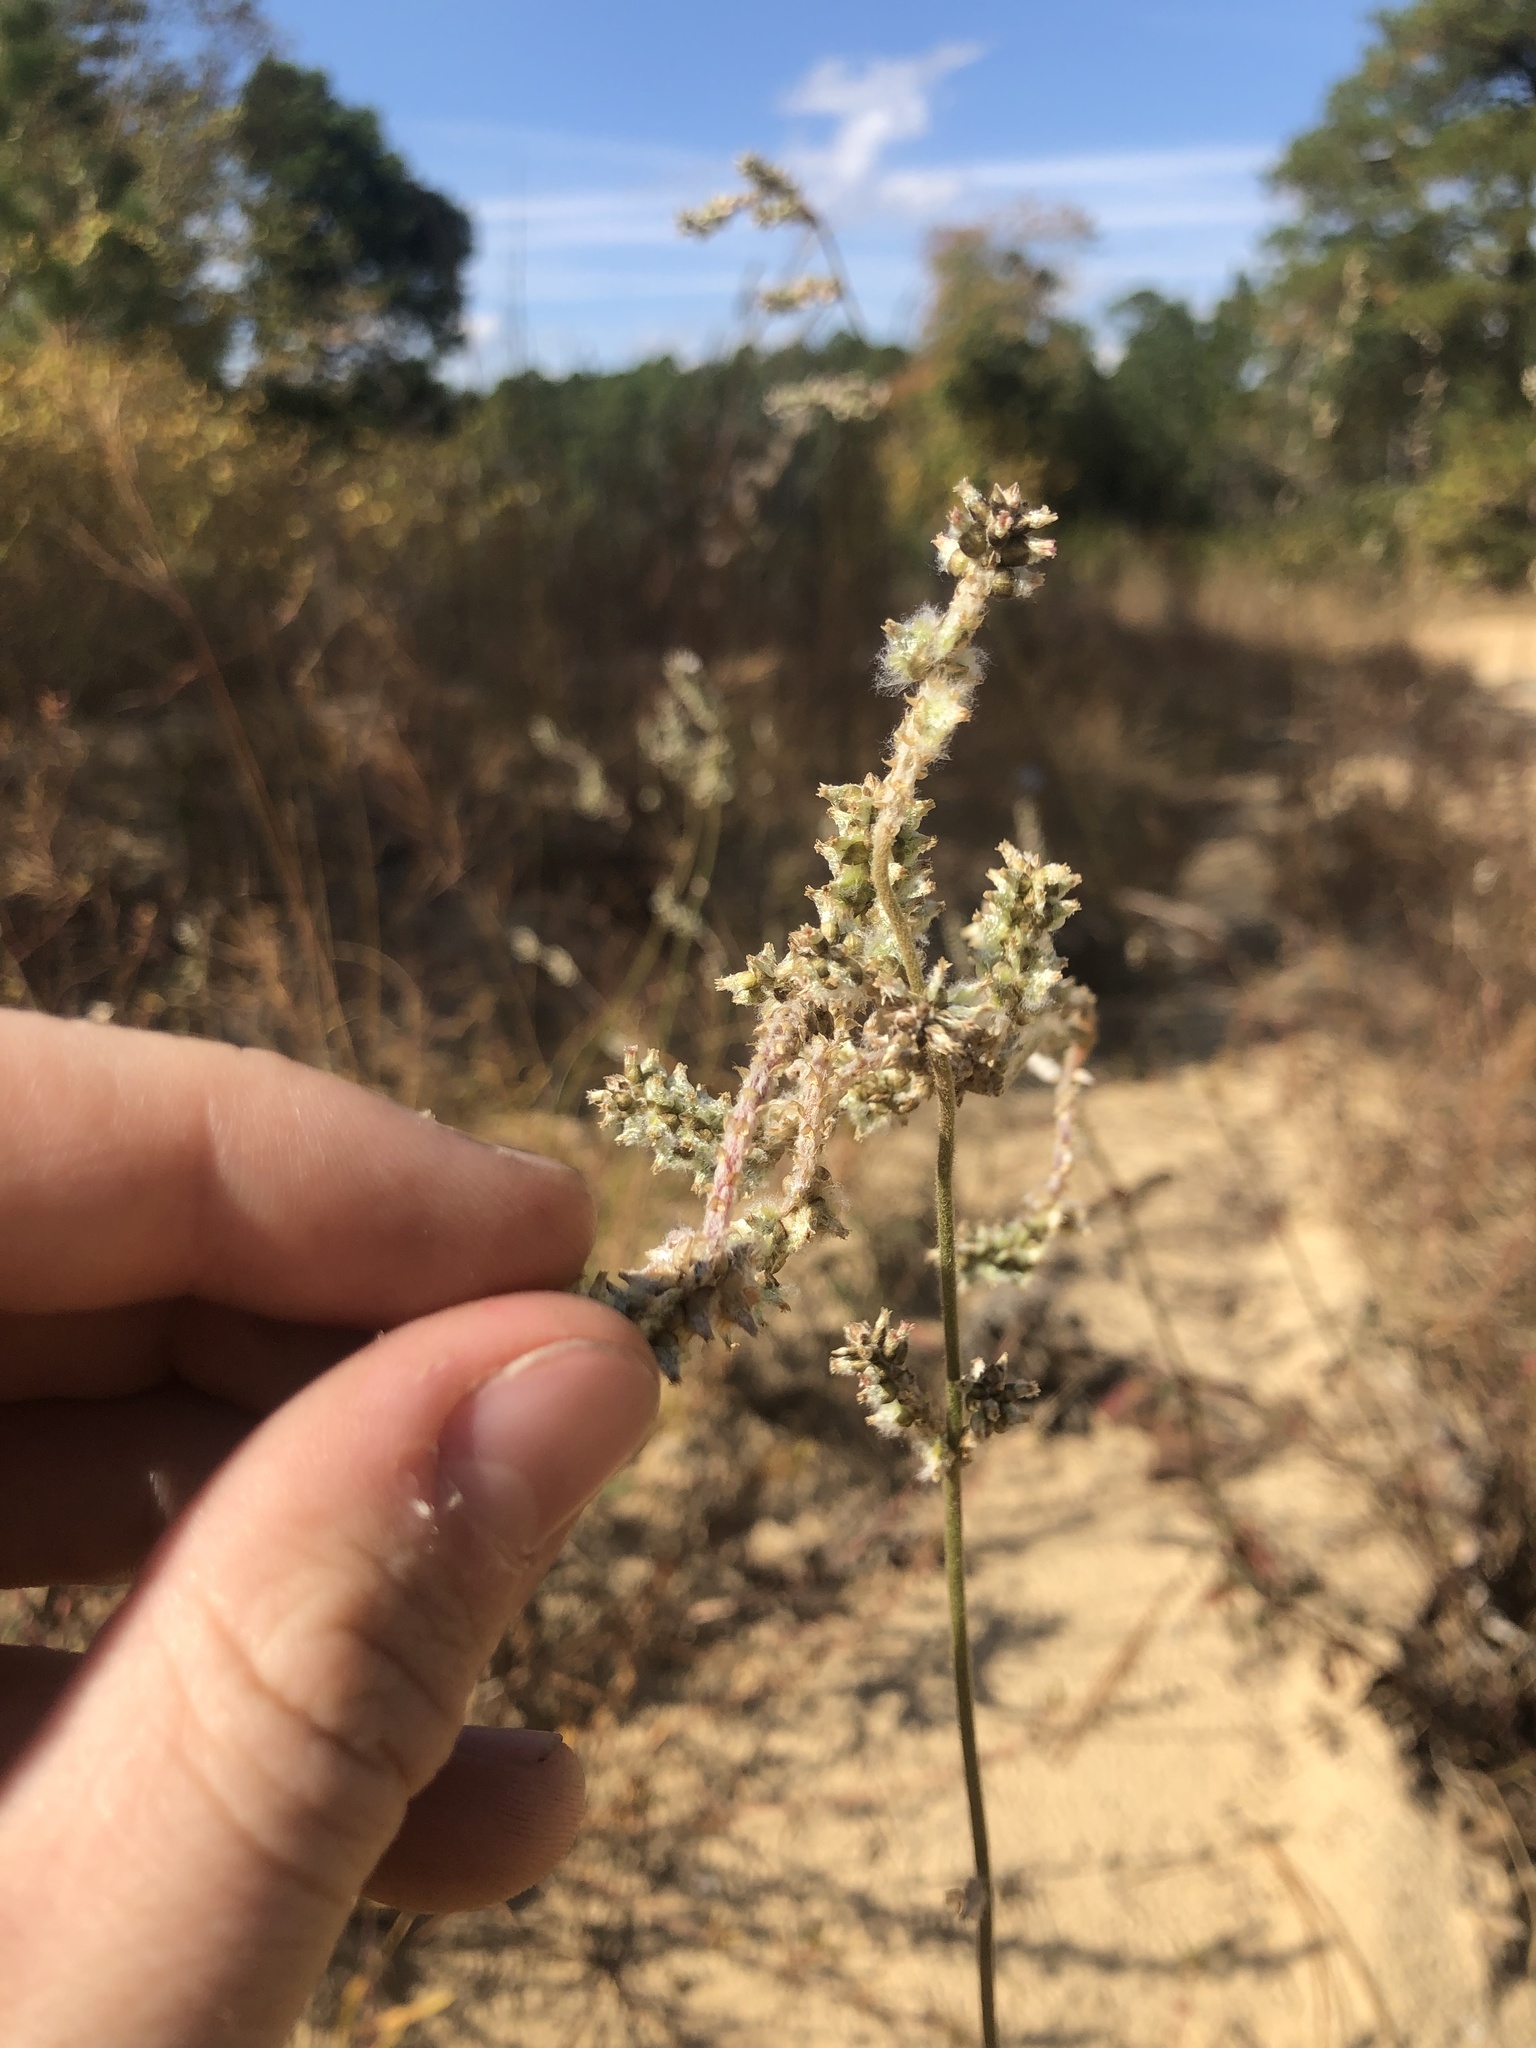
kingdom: Plantae
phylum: Tracheophyta
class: Magnoliopsida
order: Caryophyllales
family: Amaranthaceae
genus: Froelichia
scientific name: Froelichia floridana
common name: Florida snake-cotton
